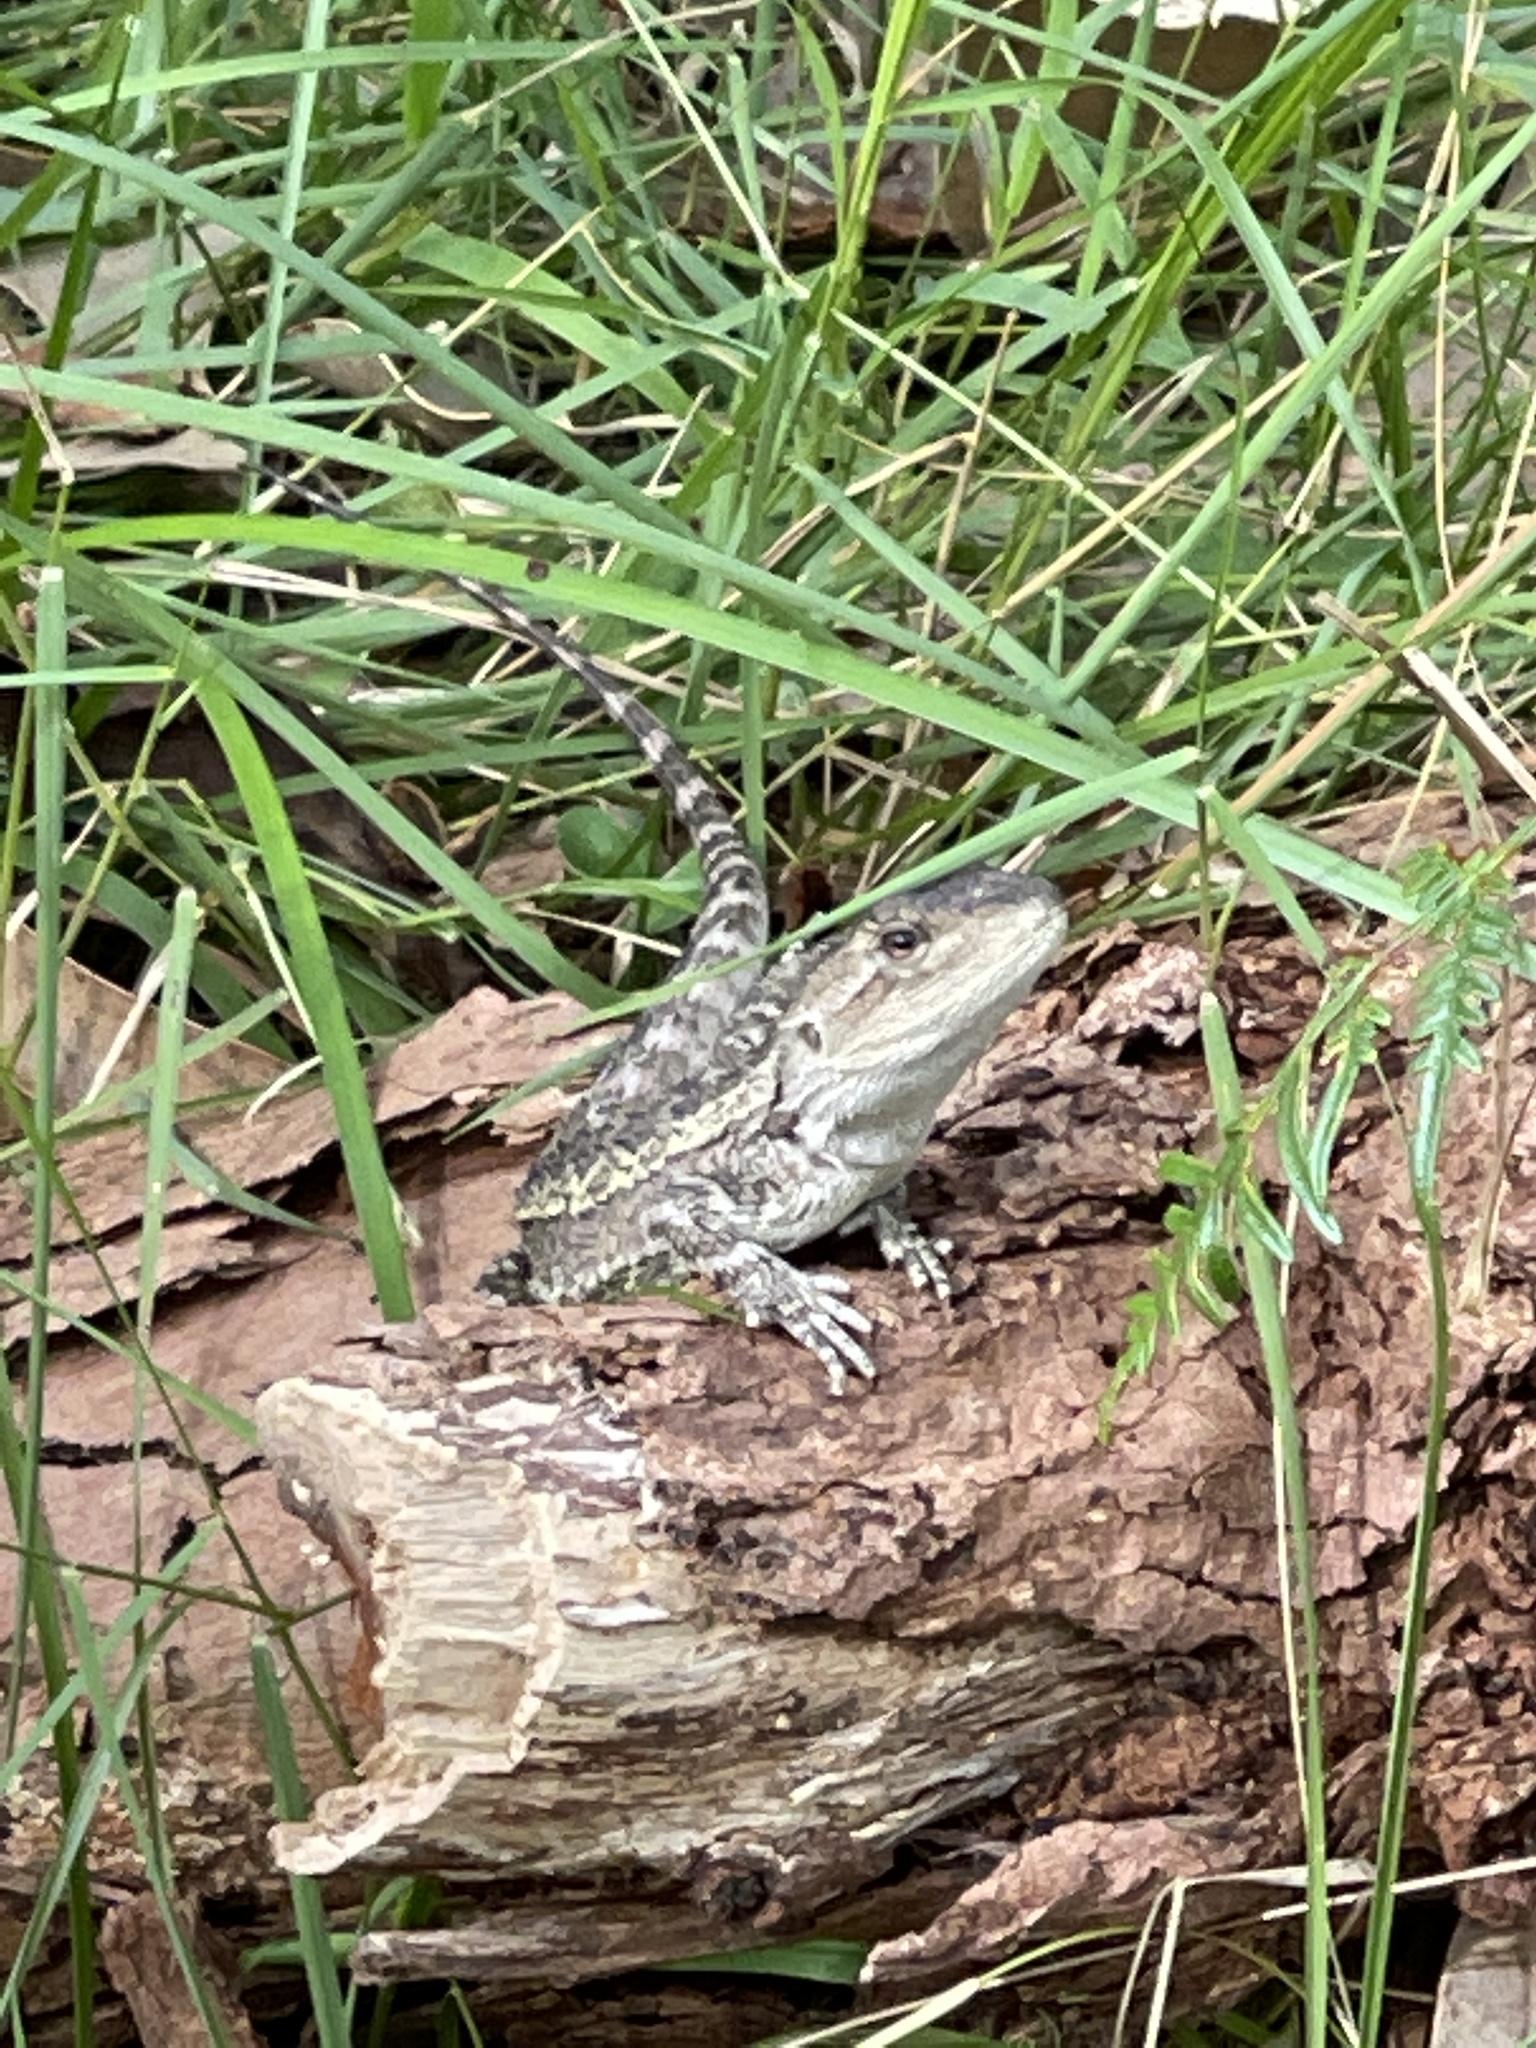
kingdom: Animalia
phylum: Chordata
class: Squamata
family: Agamidae
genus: Amphibolurus
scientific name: Amphibolurus muricatus
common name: Jacky lizard
